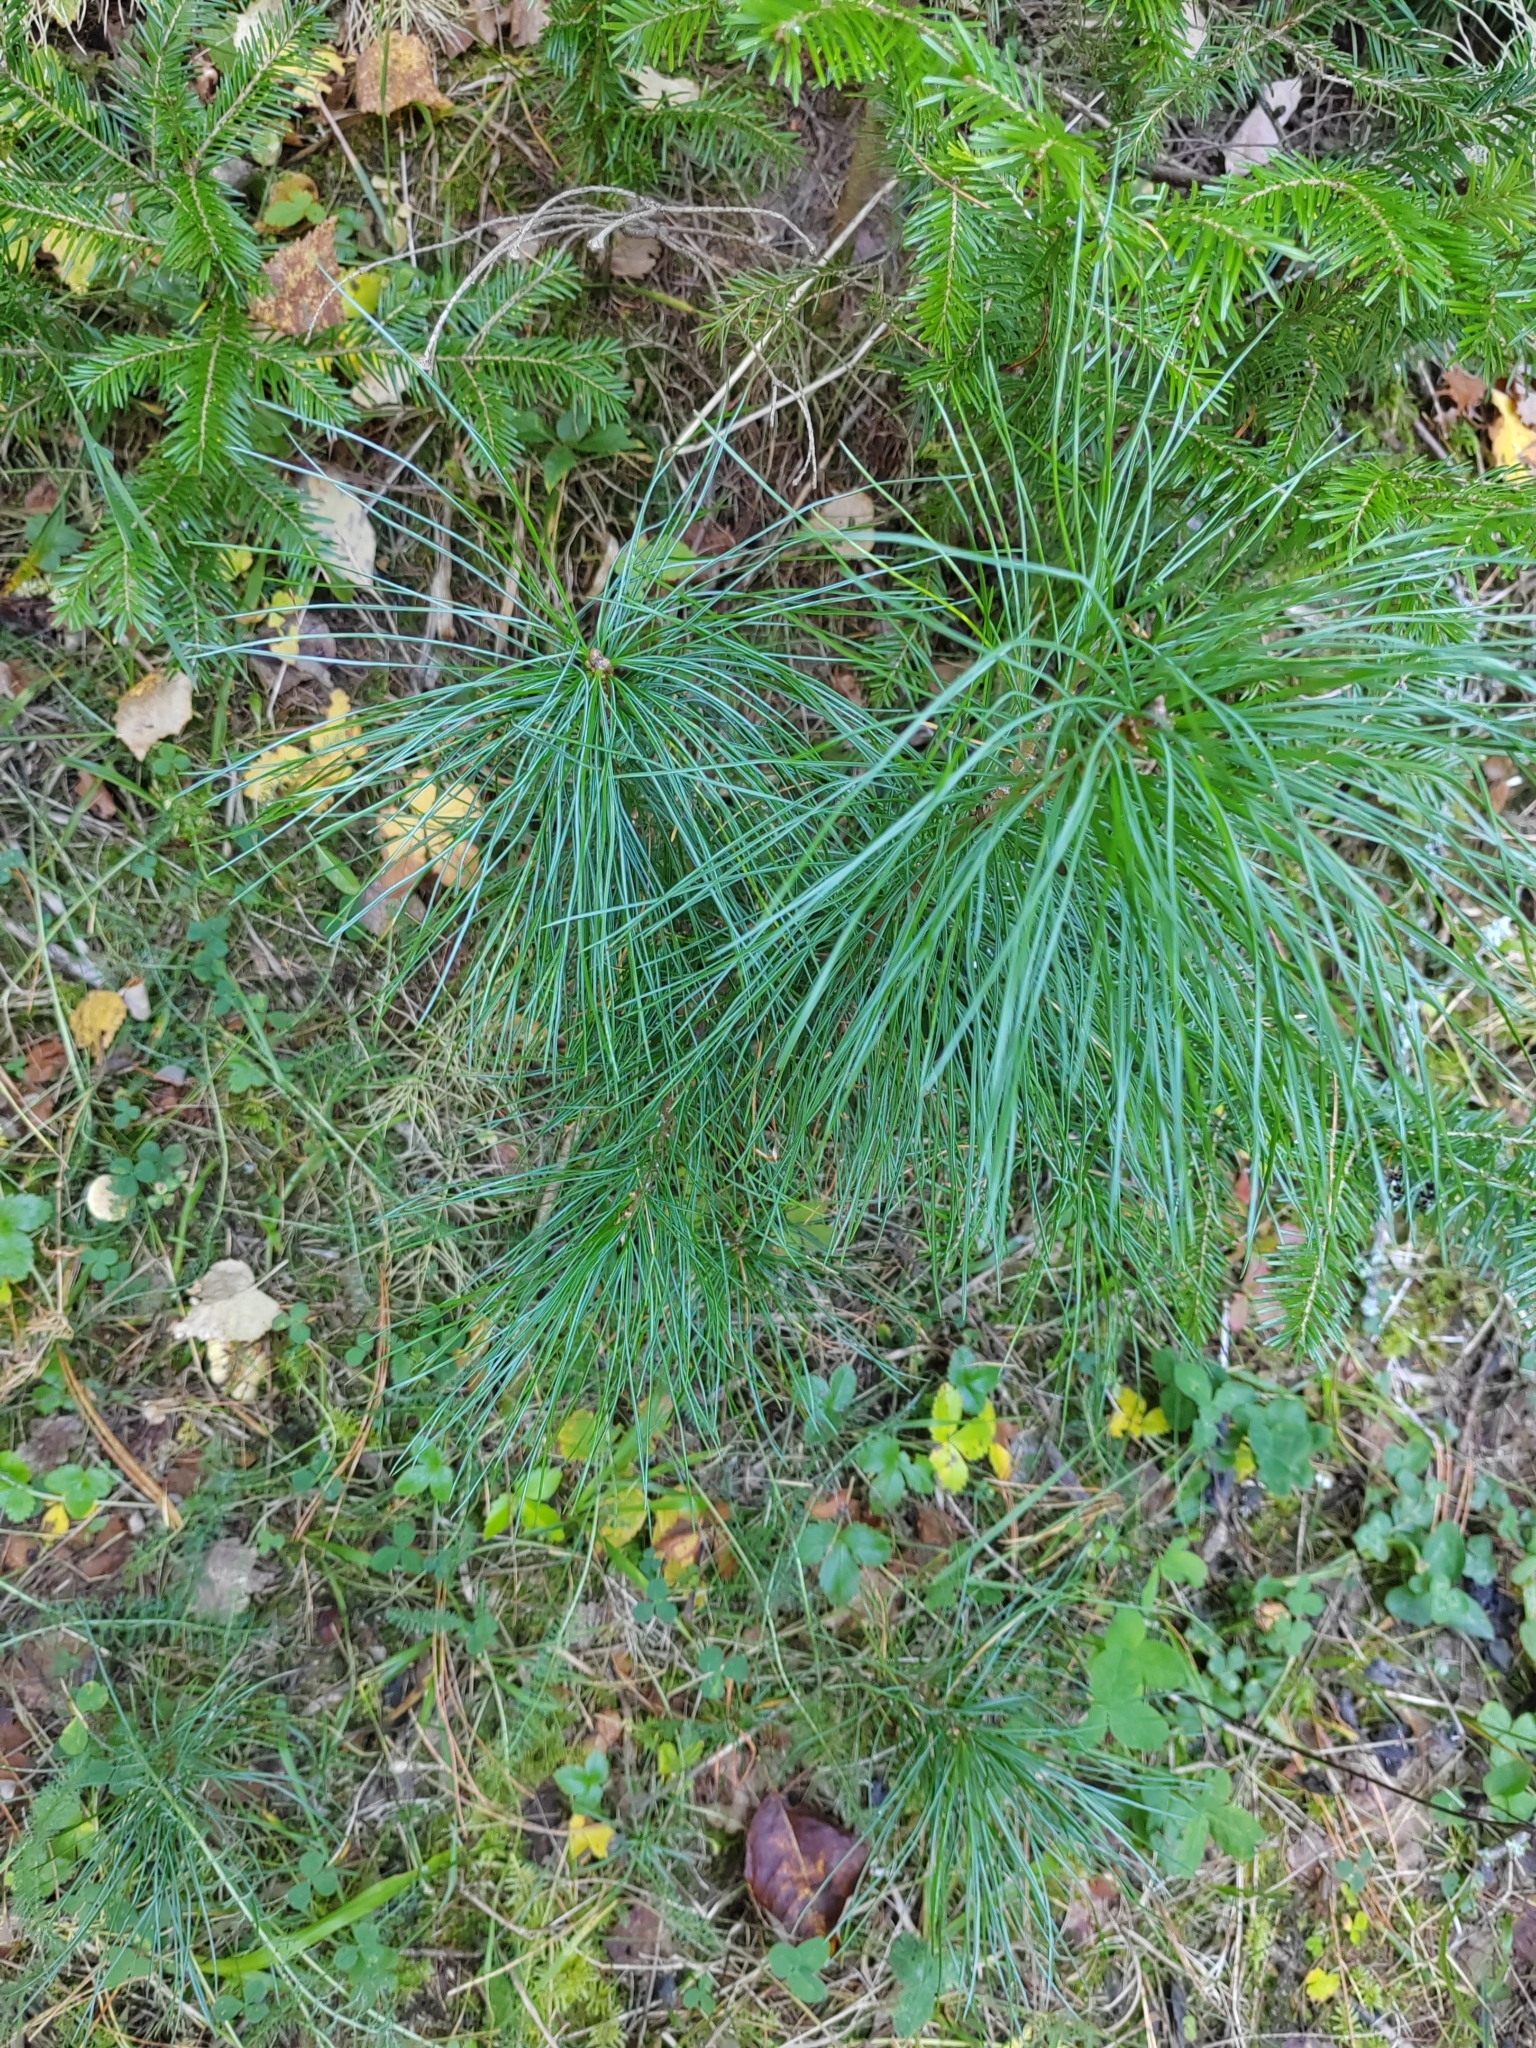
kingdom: Plantae
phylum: Tracheophyta
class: Pinopsida
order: Pinales
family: Pinaceae
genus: Pinus
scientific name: Pinus sibirica
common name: Siberian pine
